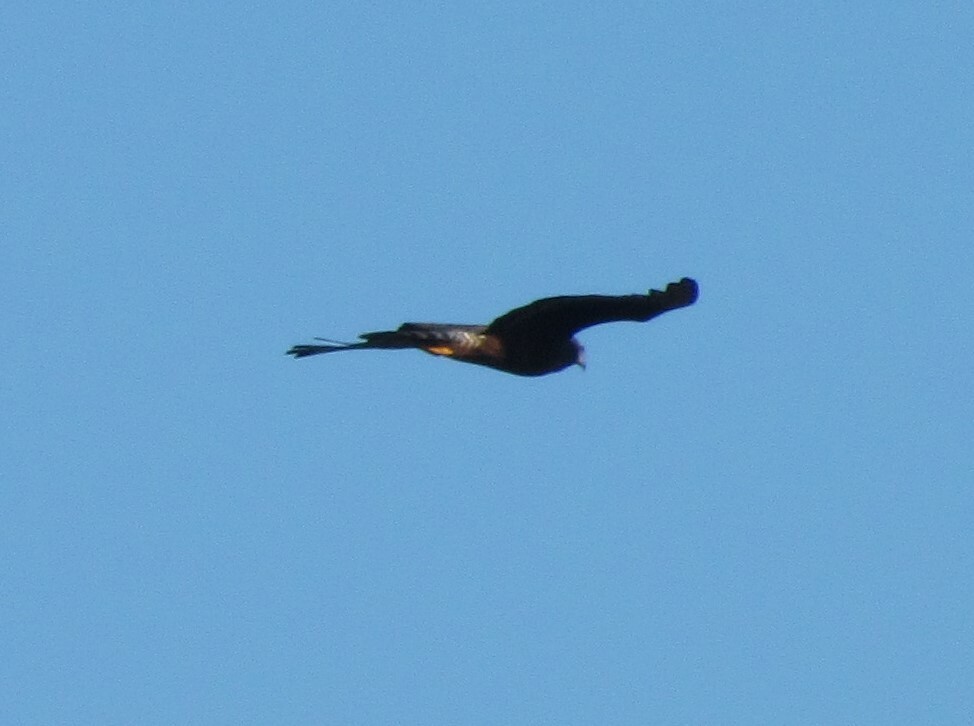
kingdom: Animalia
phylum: Chordata
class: Aves
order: Accipitriformes
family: Accipitridae
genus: Circus
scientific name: Circus buffoni
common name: Long-winged harrier
